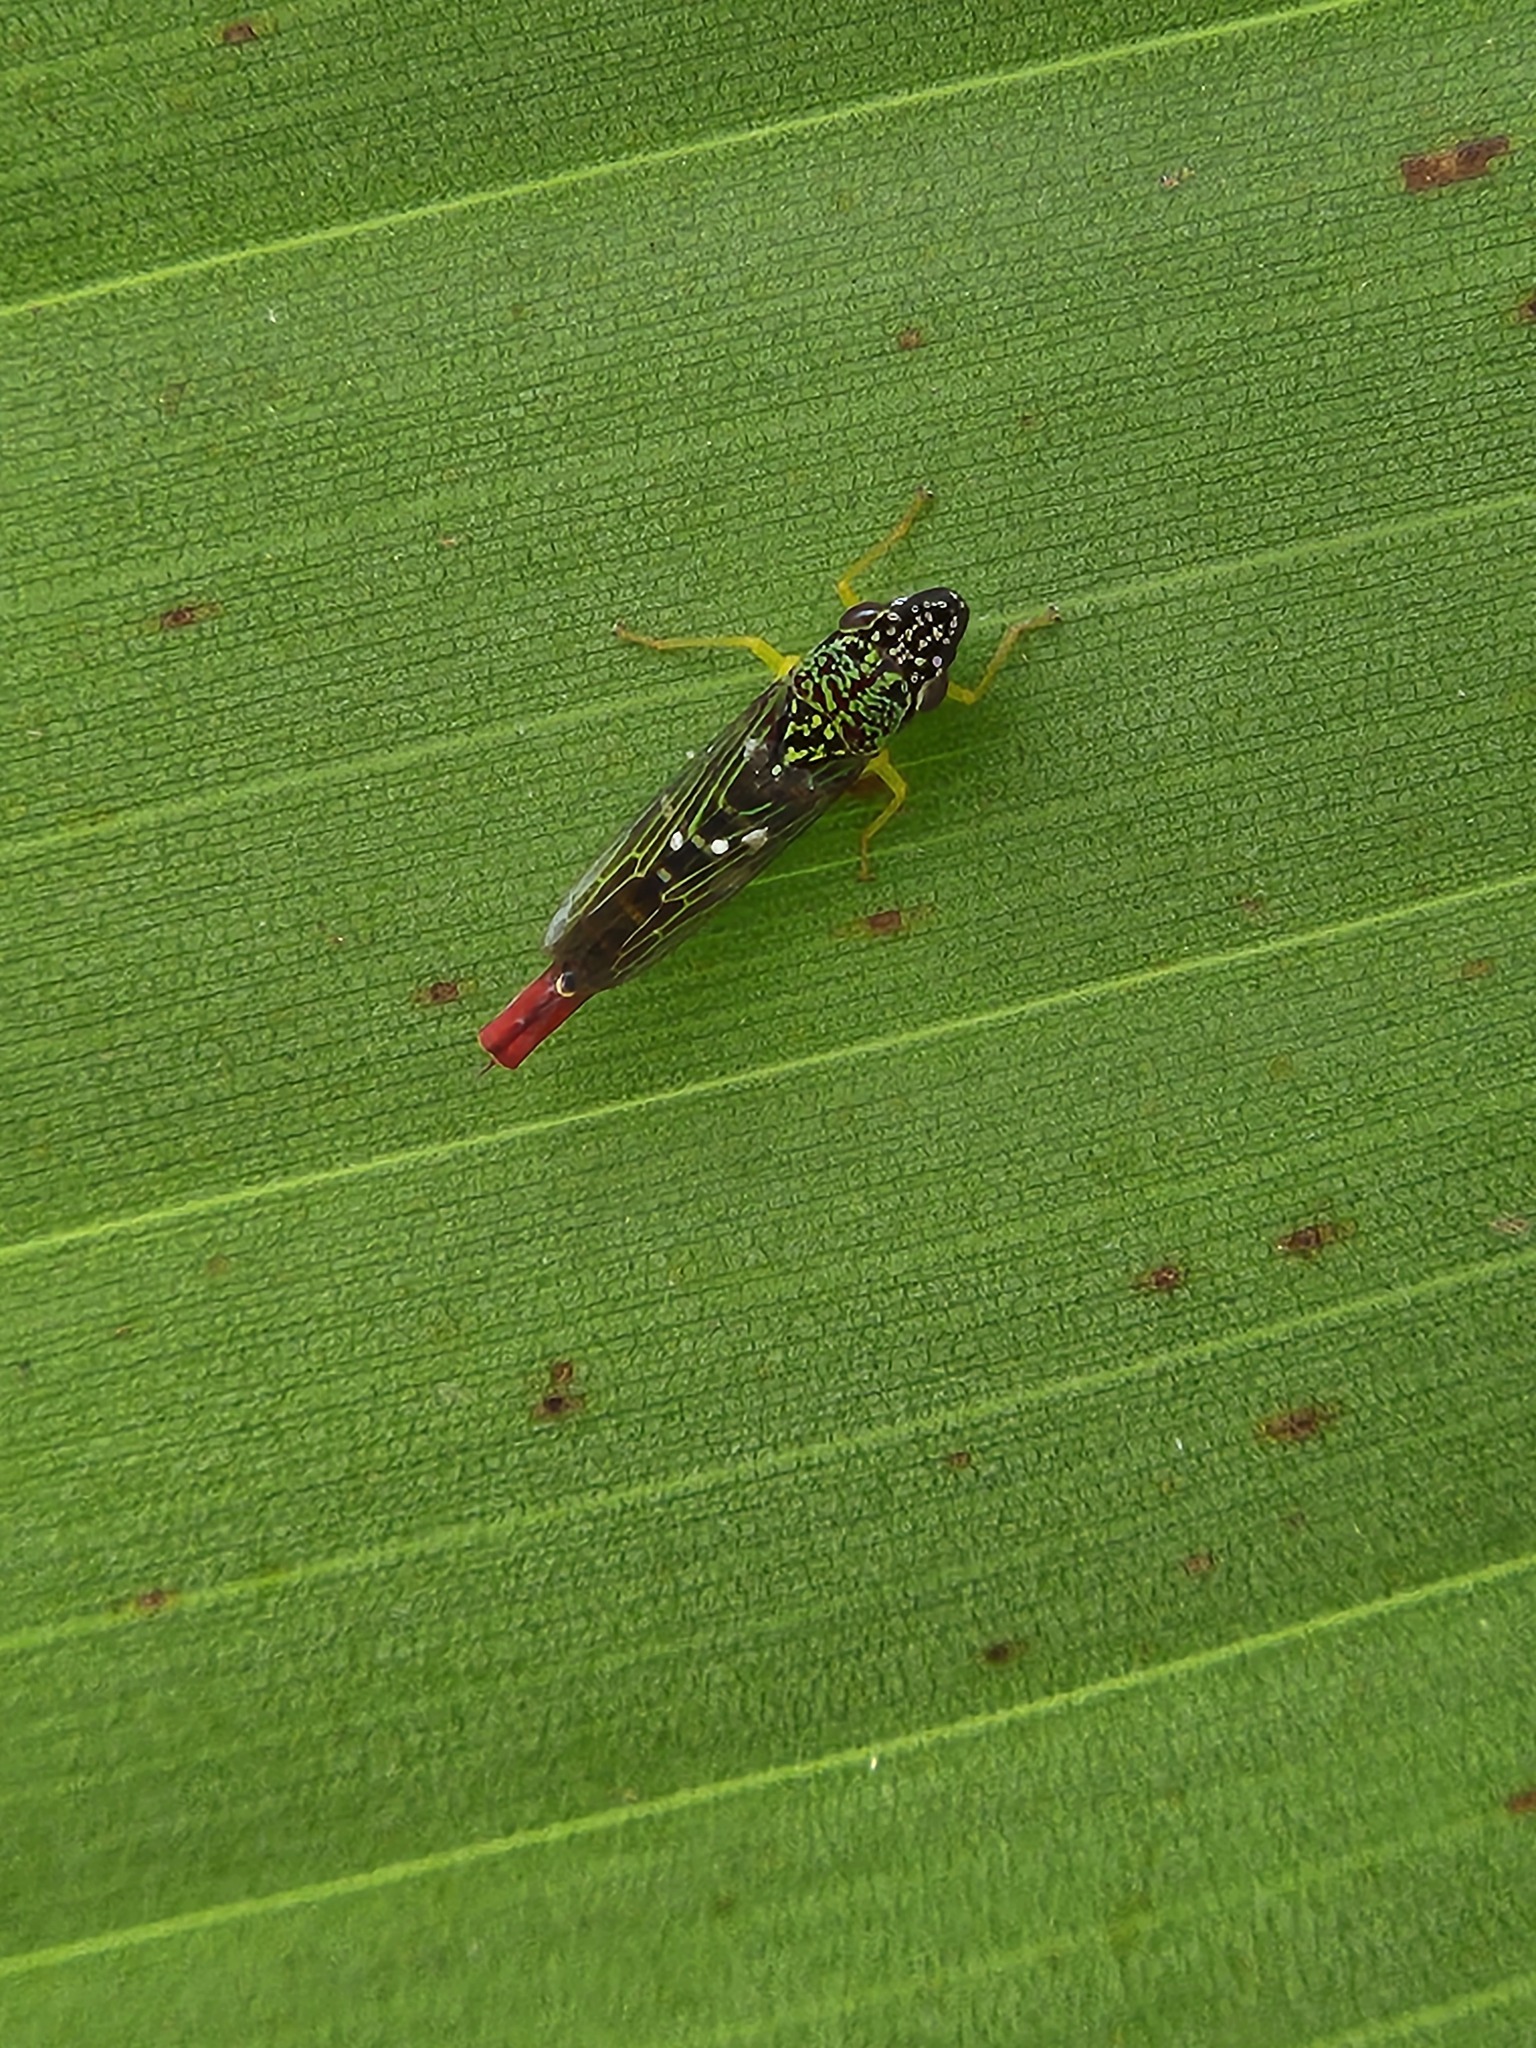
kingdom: Animalia
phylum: Arthropoda
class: Insecta
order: Hemiptera
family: Cicadellidae
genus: Acrogonia
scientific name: Acrogonia citrina
